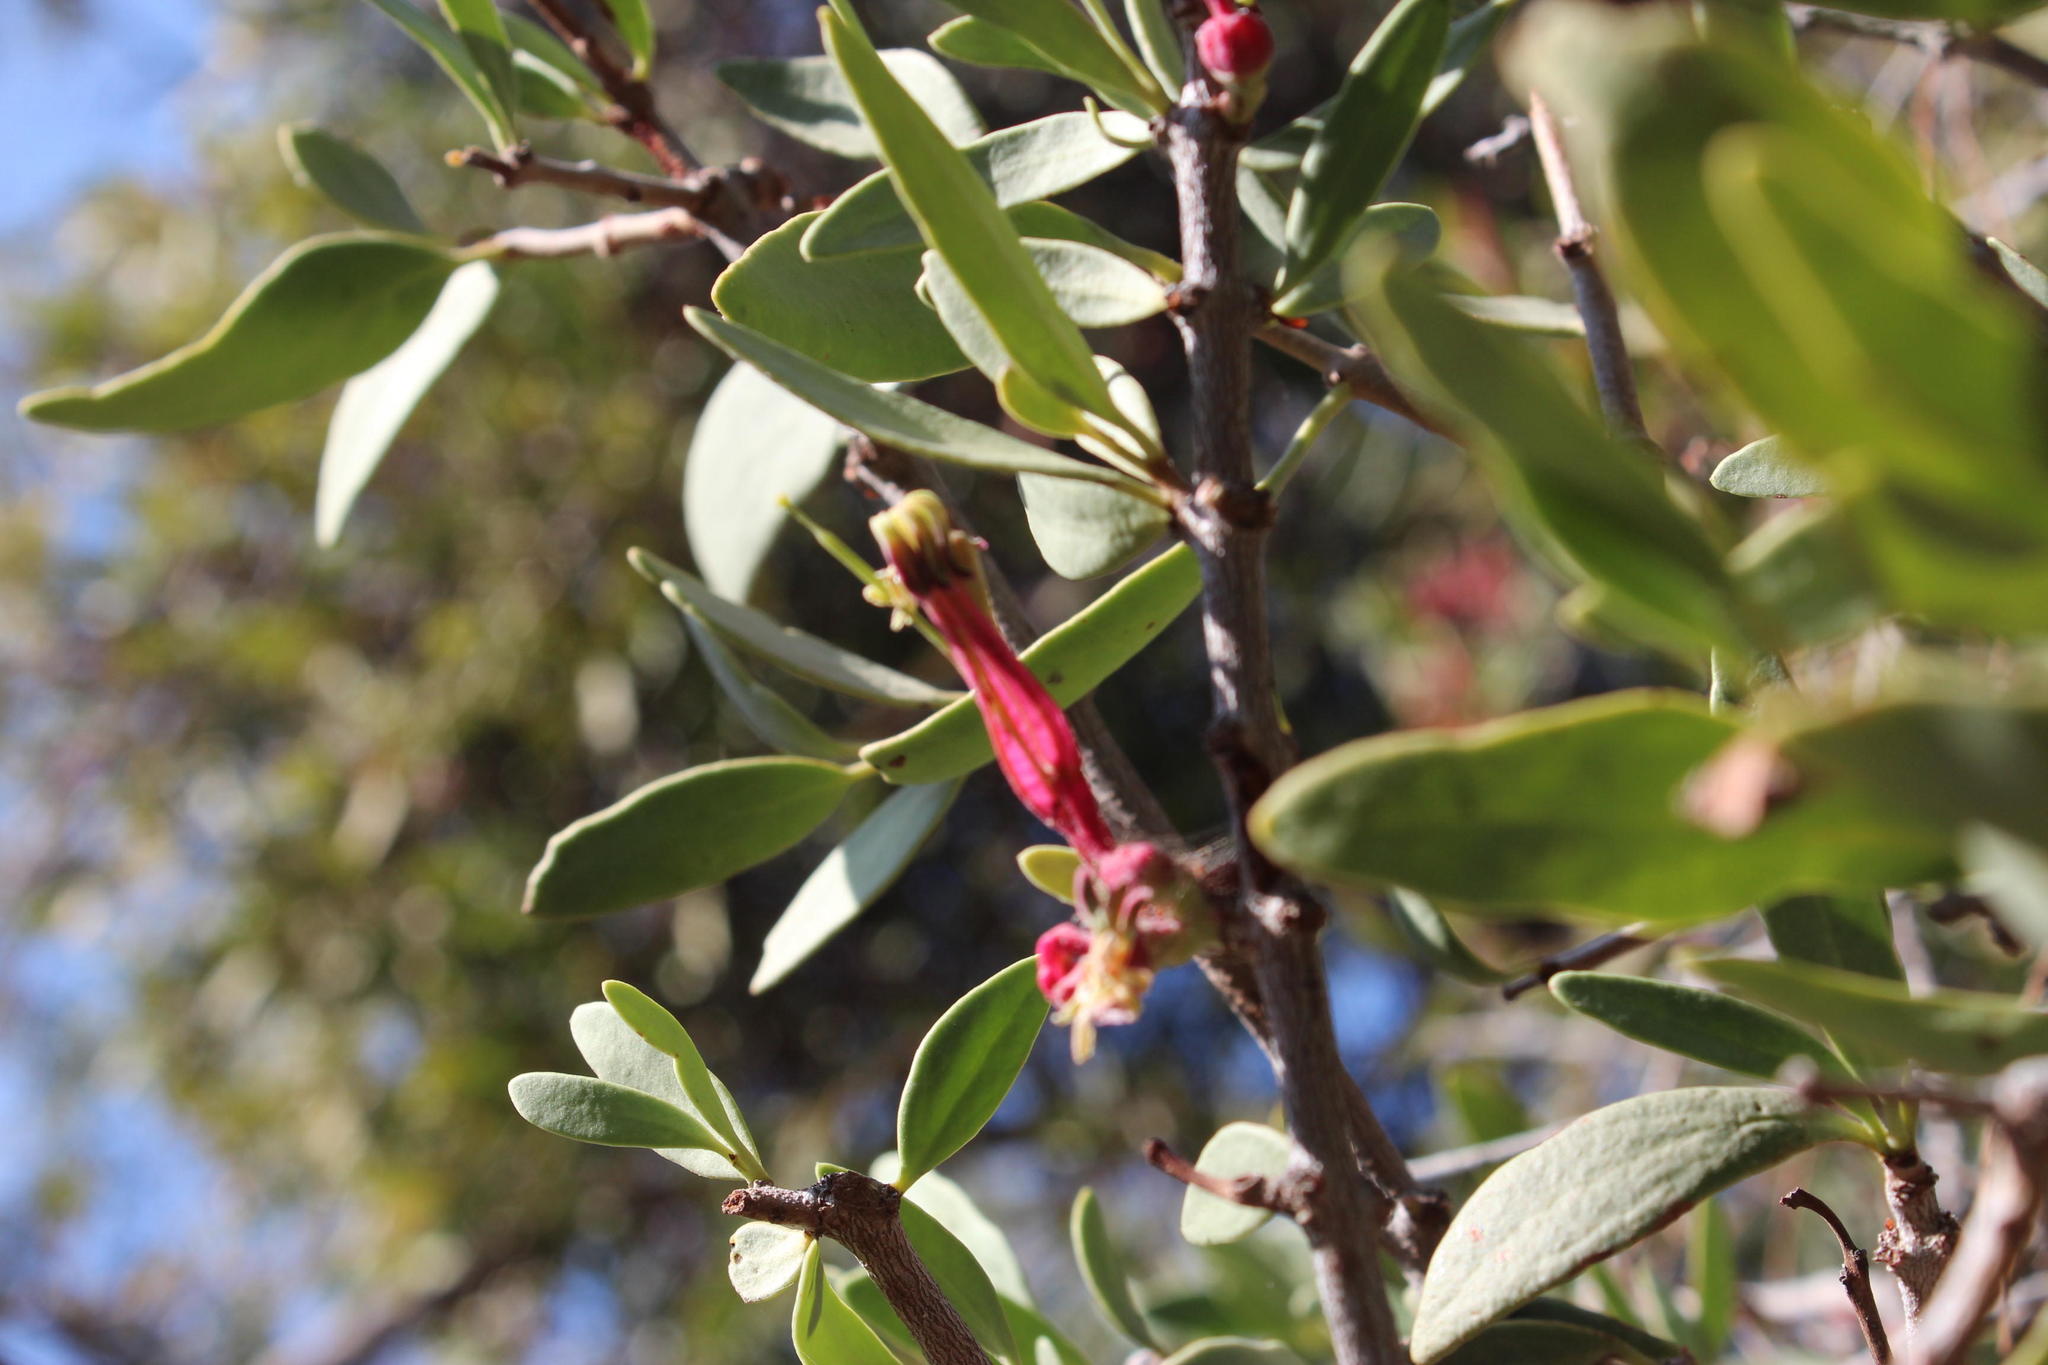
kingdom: Plantae
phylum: Tracheophyta
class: Magnoliopsida
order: Santalales
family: Loranthaceae
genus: Tapinanthus
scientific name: Tapinanthus oleifolius
